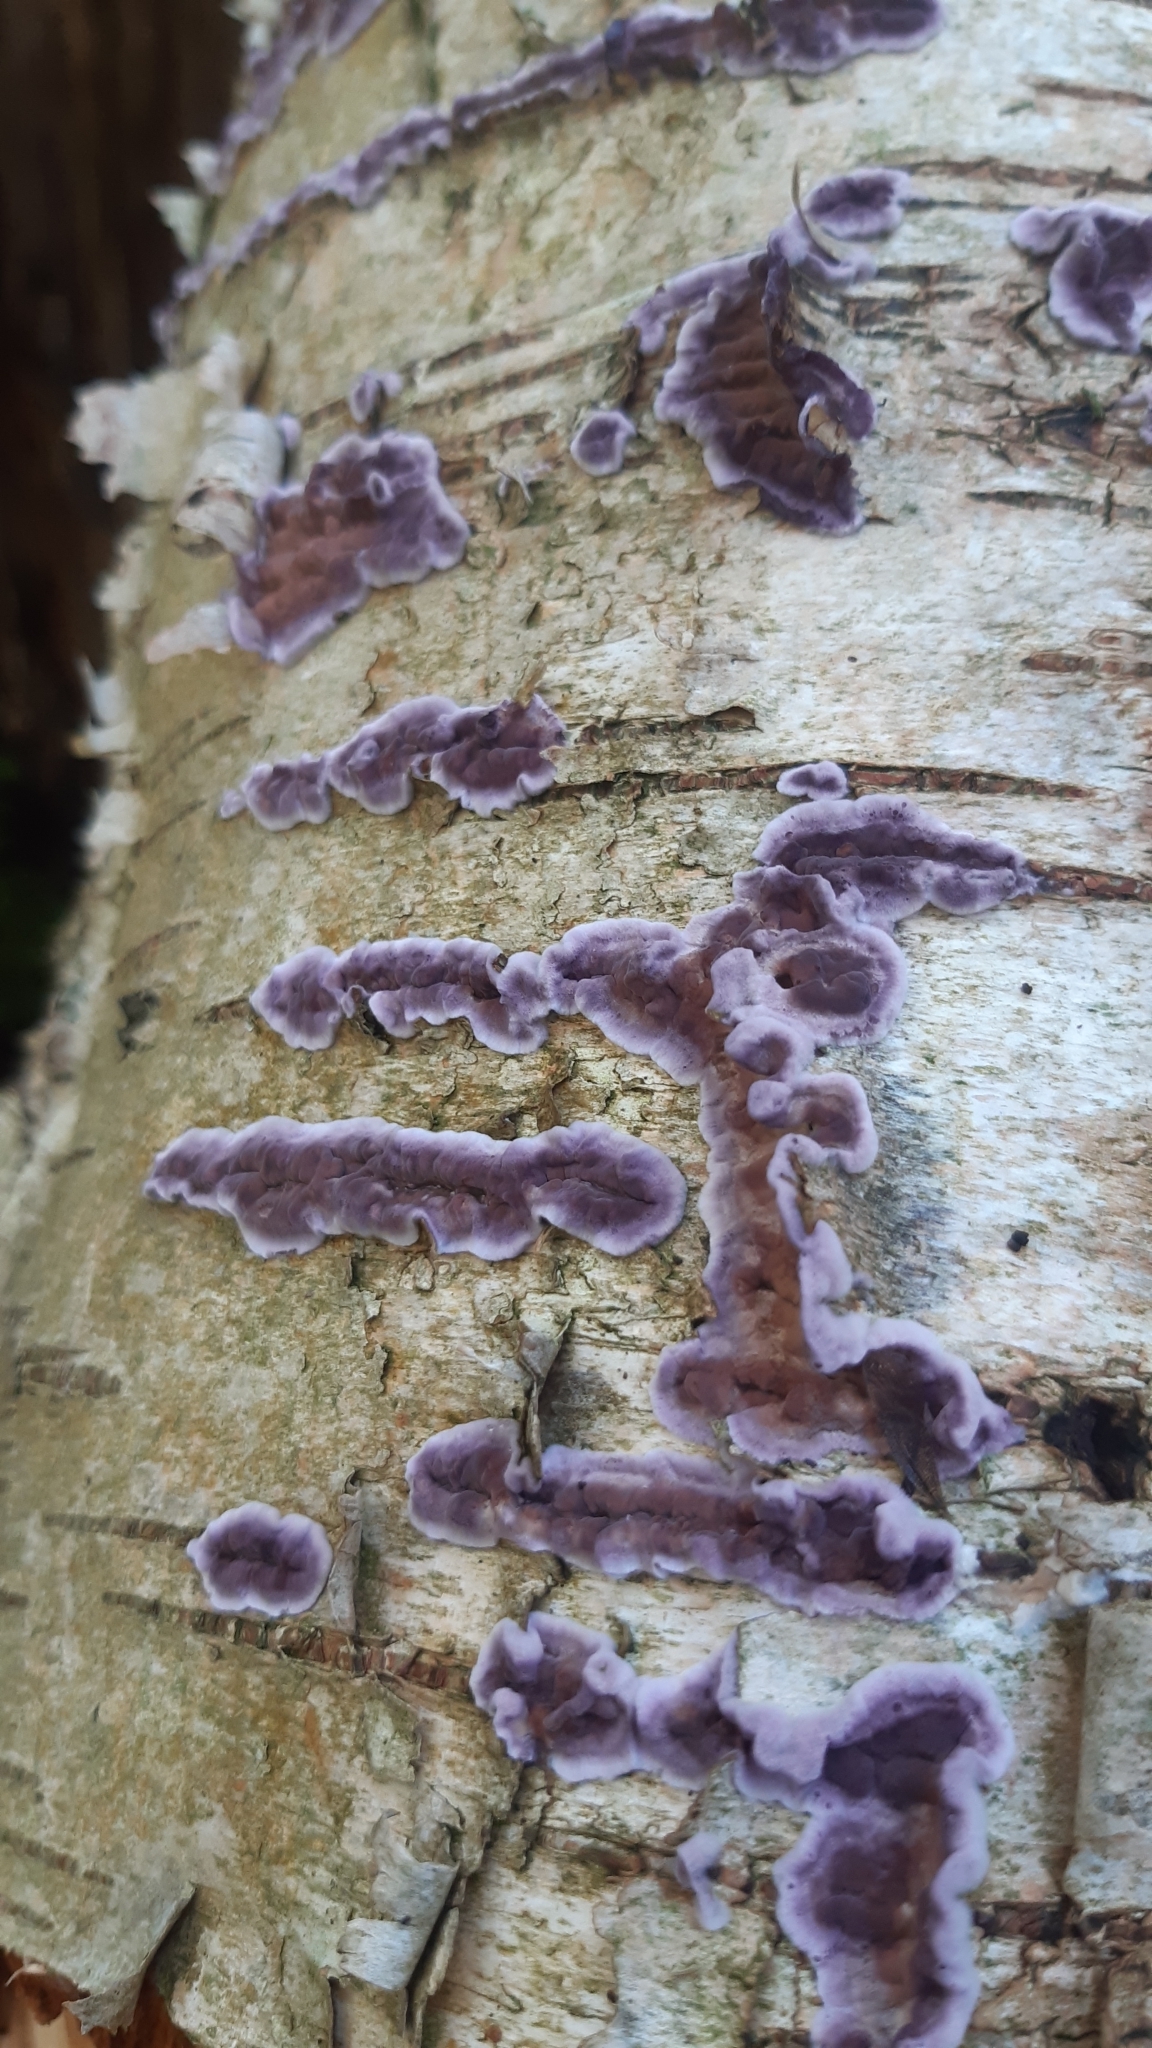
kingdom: Fungi
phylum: Basidiomycota
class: Agaricomycetes
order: Agaricales
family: Cyphellaceae
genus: Chondrostereum
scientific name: Chondrostereum purpureum
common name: Silver leaf disease
